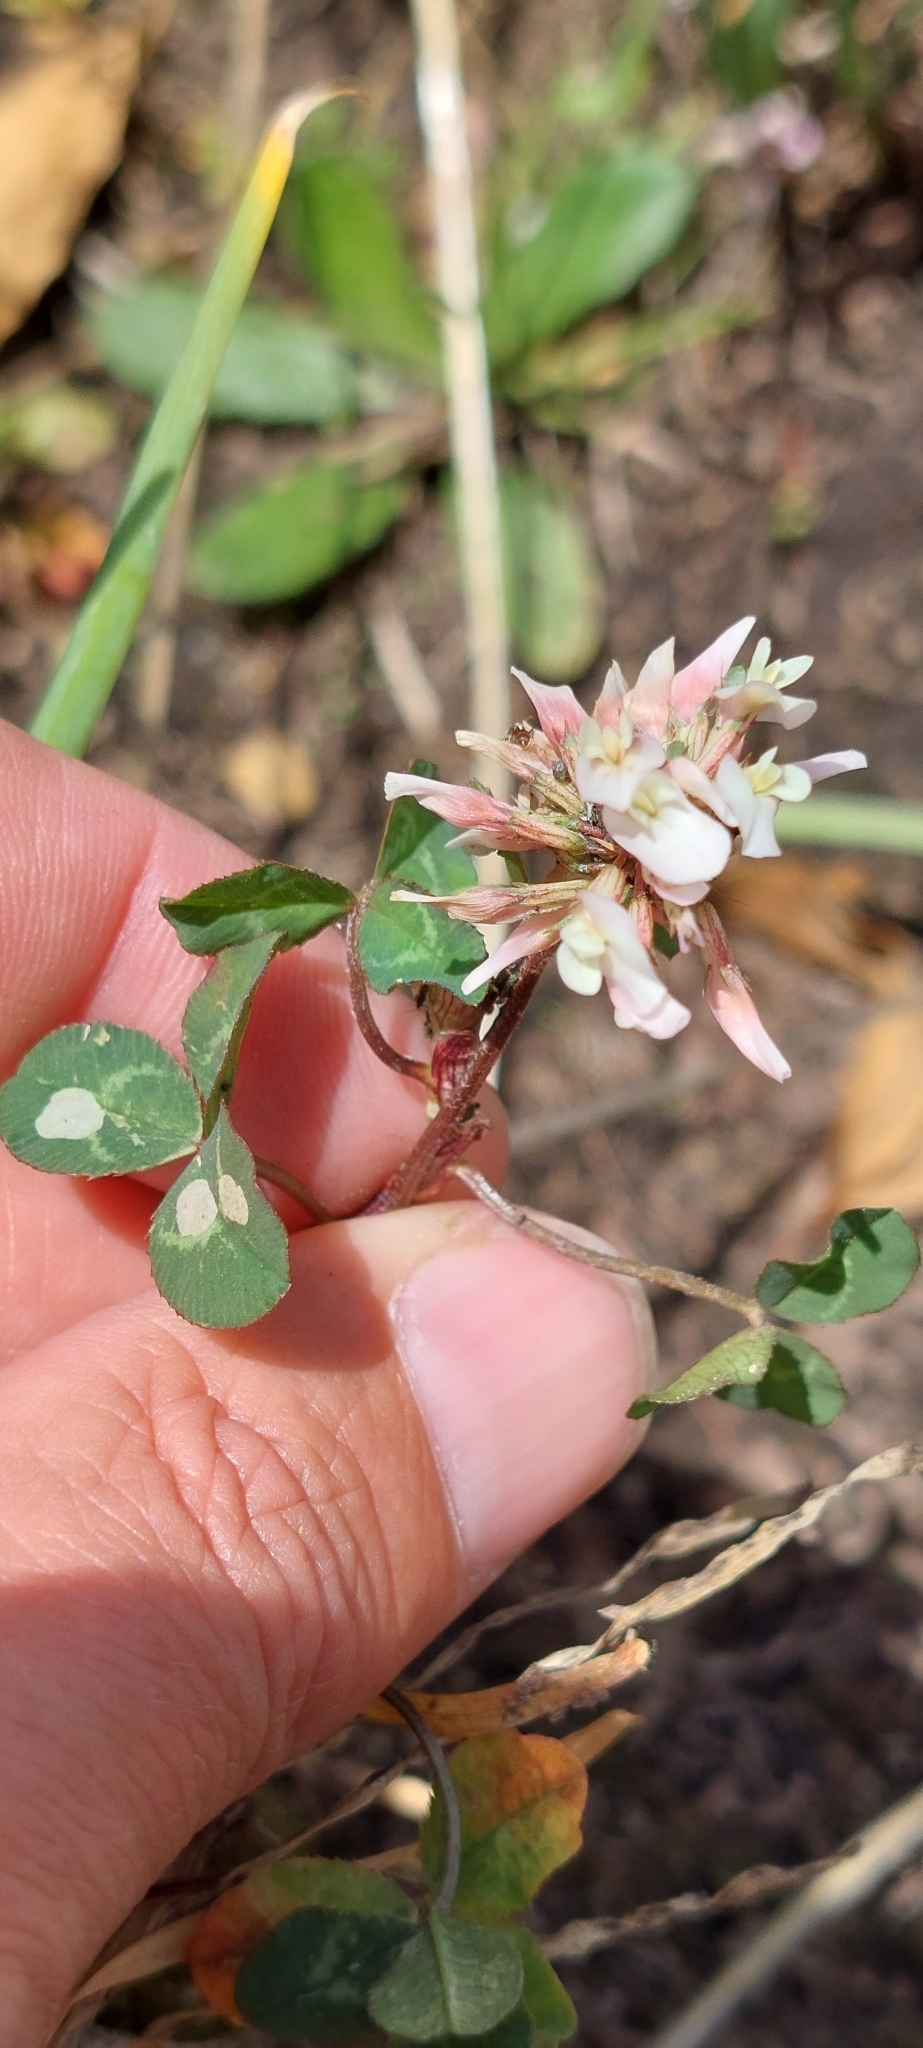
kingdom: Plantae
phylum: Tracheophyta
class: Magnoliopsida
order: Fabales
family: Fabaceae
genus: Trifolium
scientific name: Trifolium repens
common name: White clover
